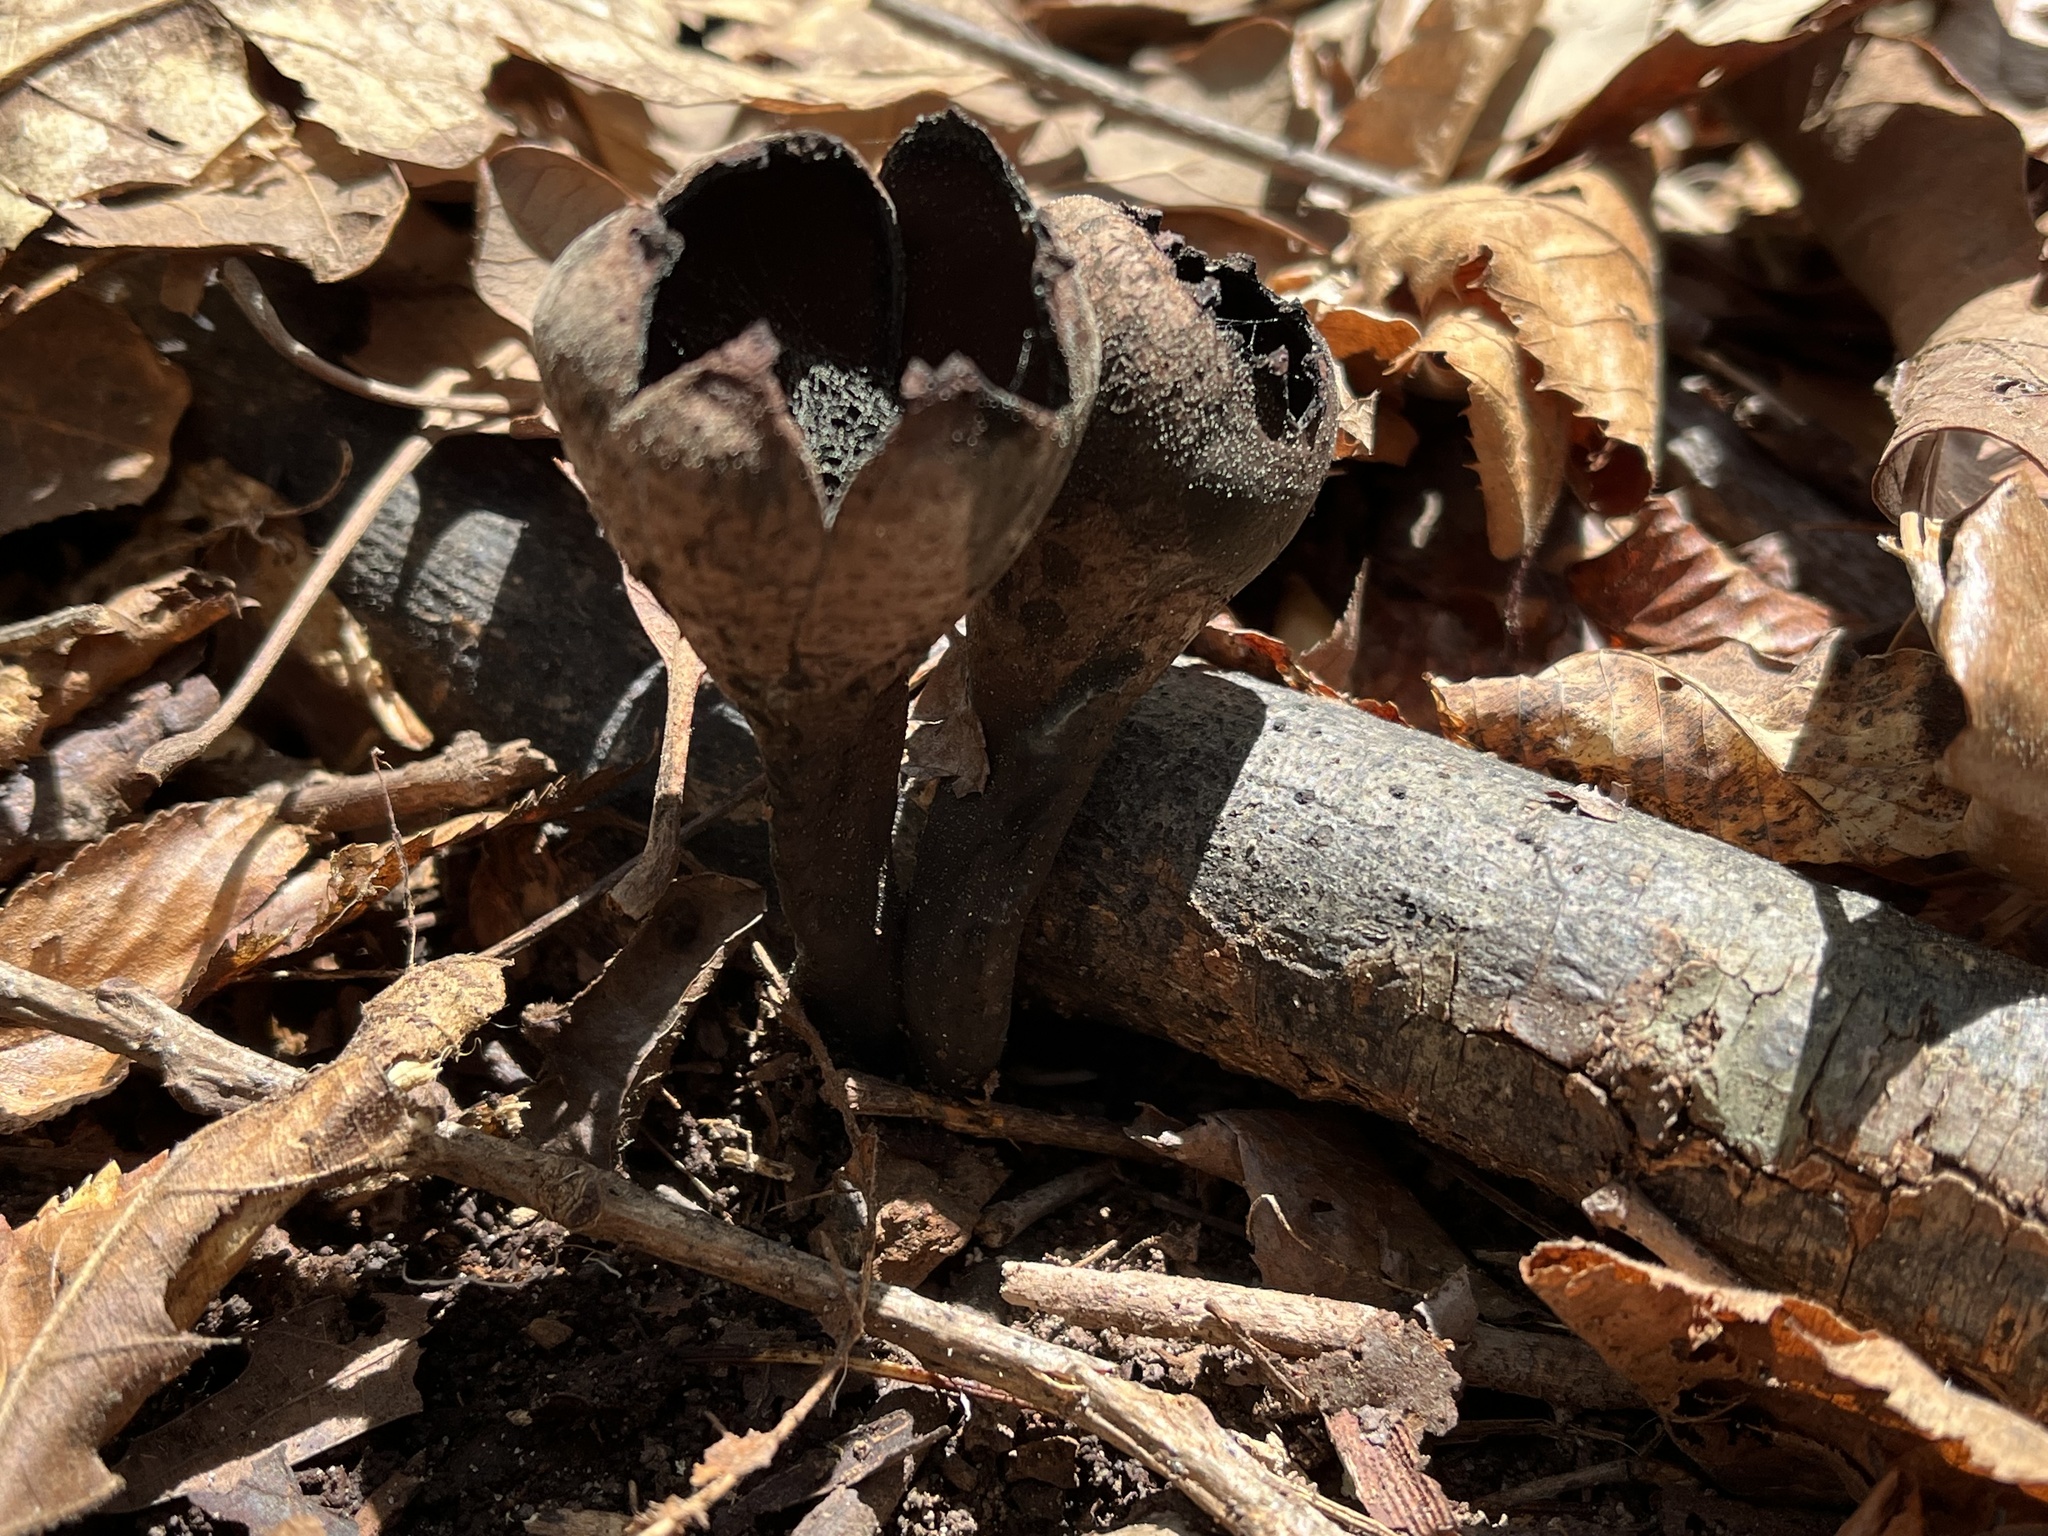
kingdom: Fungi
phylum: Ascomycota
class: Pezizomycetes
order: Pezizales
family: Sarcosomataceae
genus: Urnula
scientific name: Urnula craterium
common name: Devil's urn
